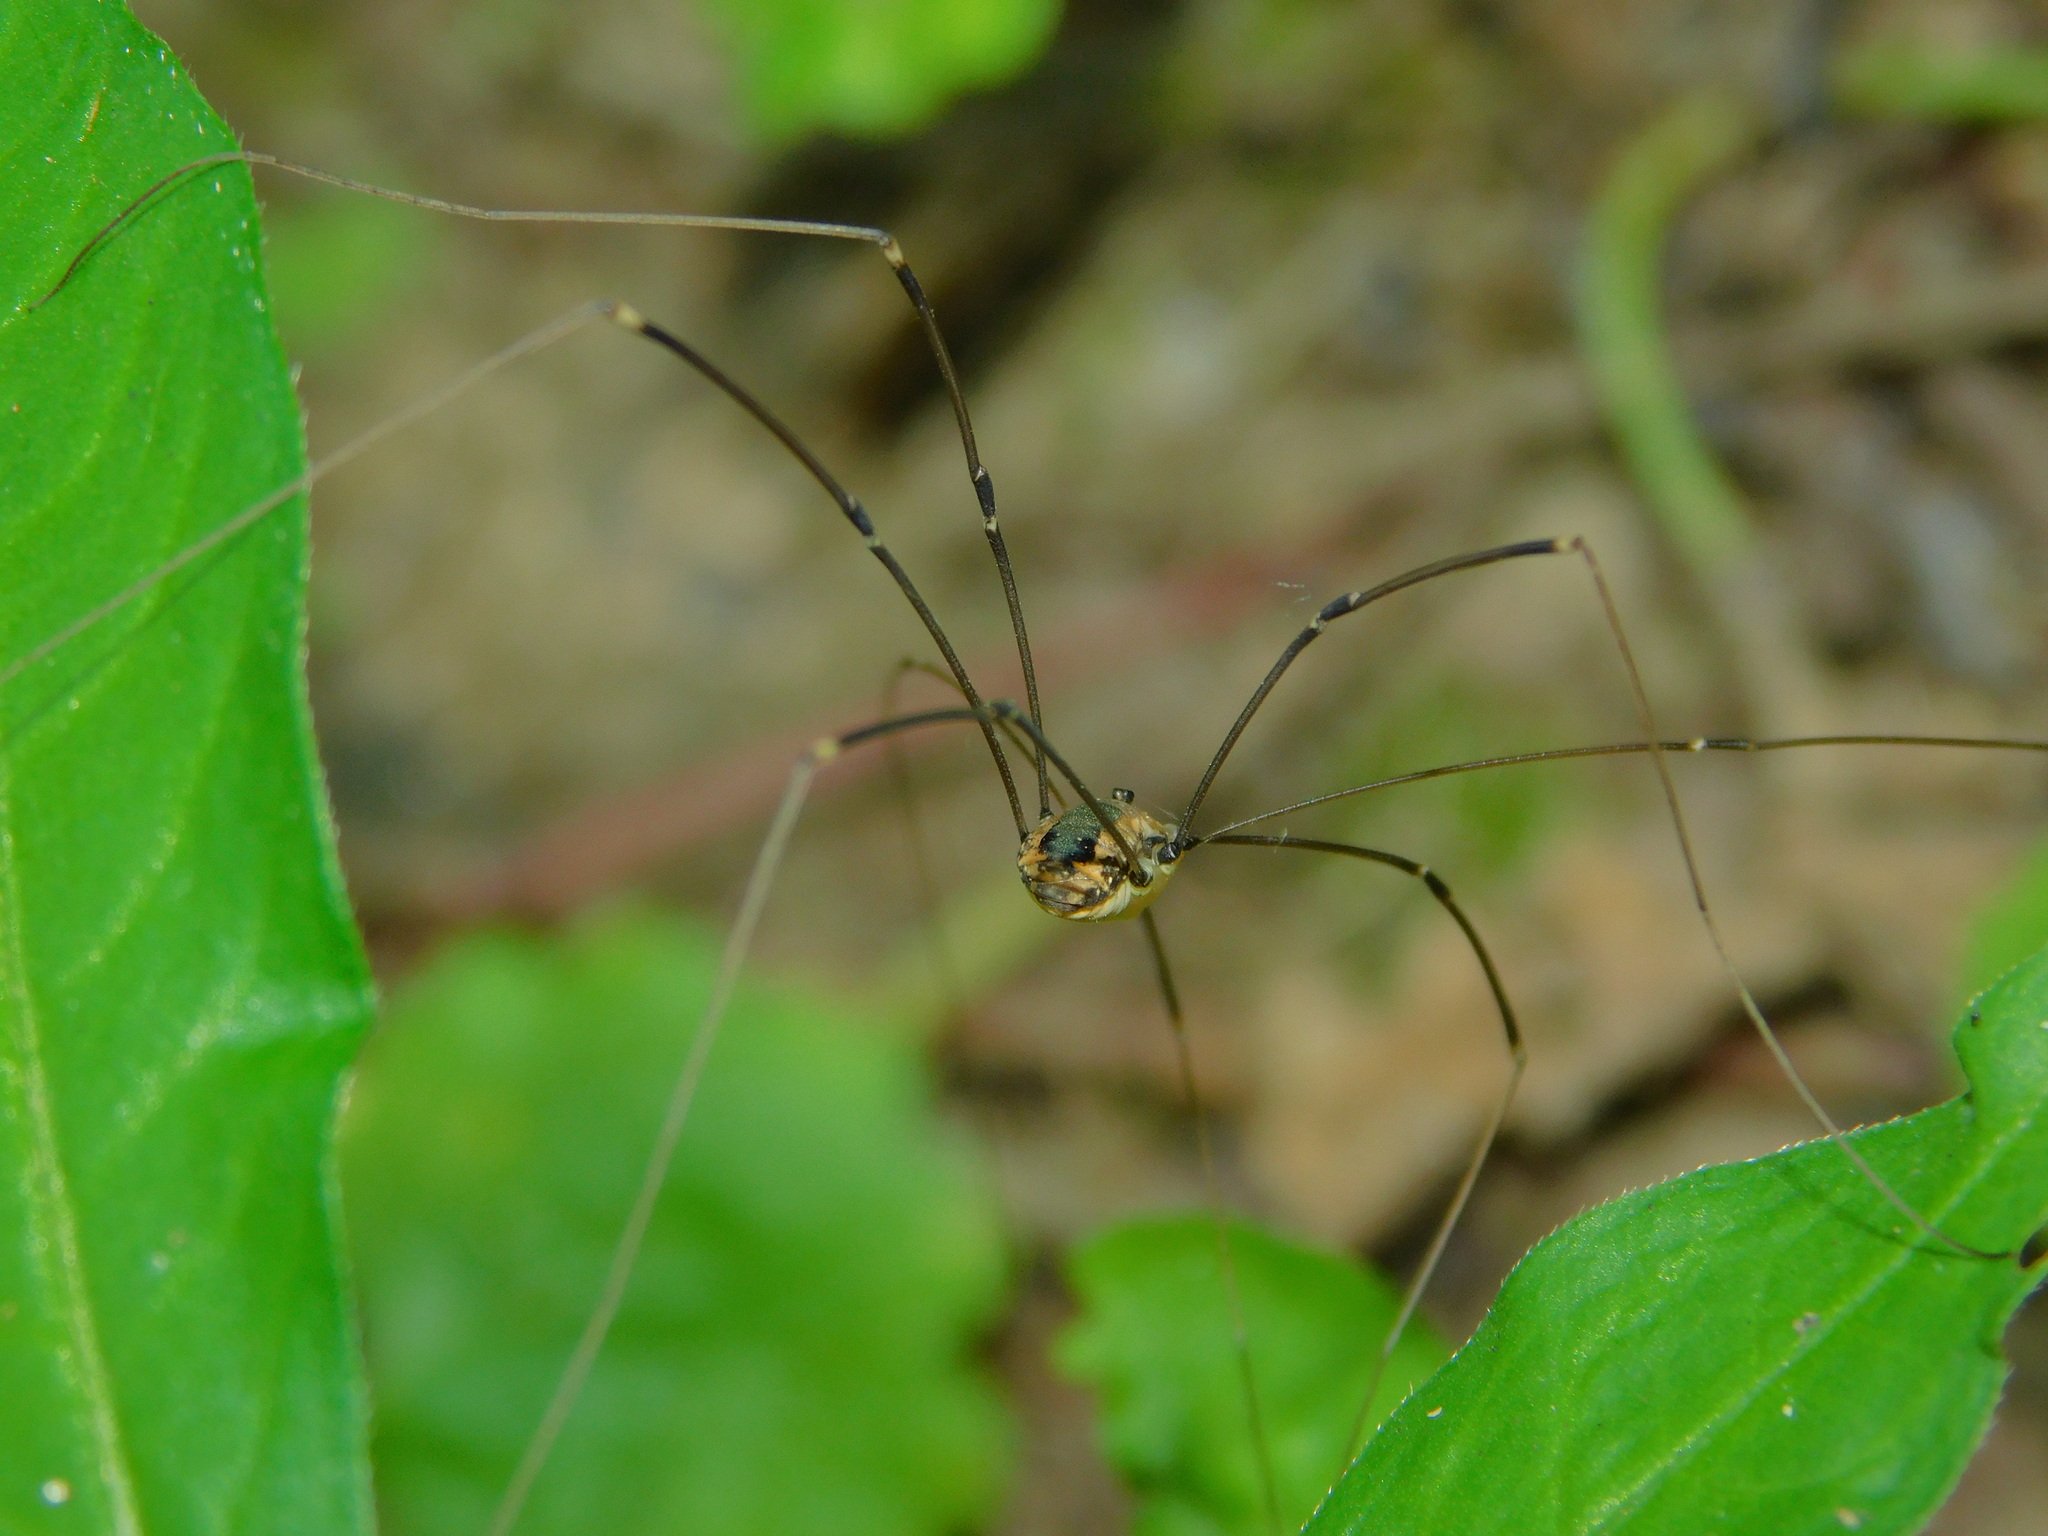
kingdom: Animalia
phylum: Arthropoda
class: Arachnida
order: Opiliones
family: Sclerosomatidae
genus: Leiobunum
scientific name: Leiobunum rotundum
